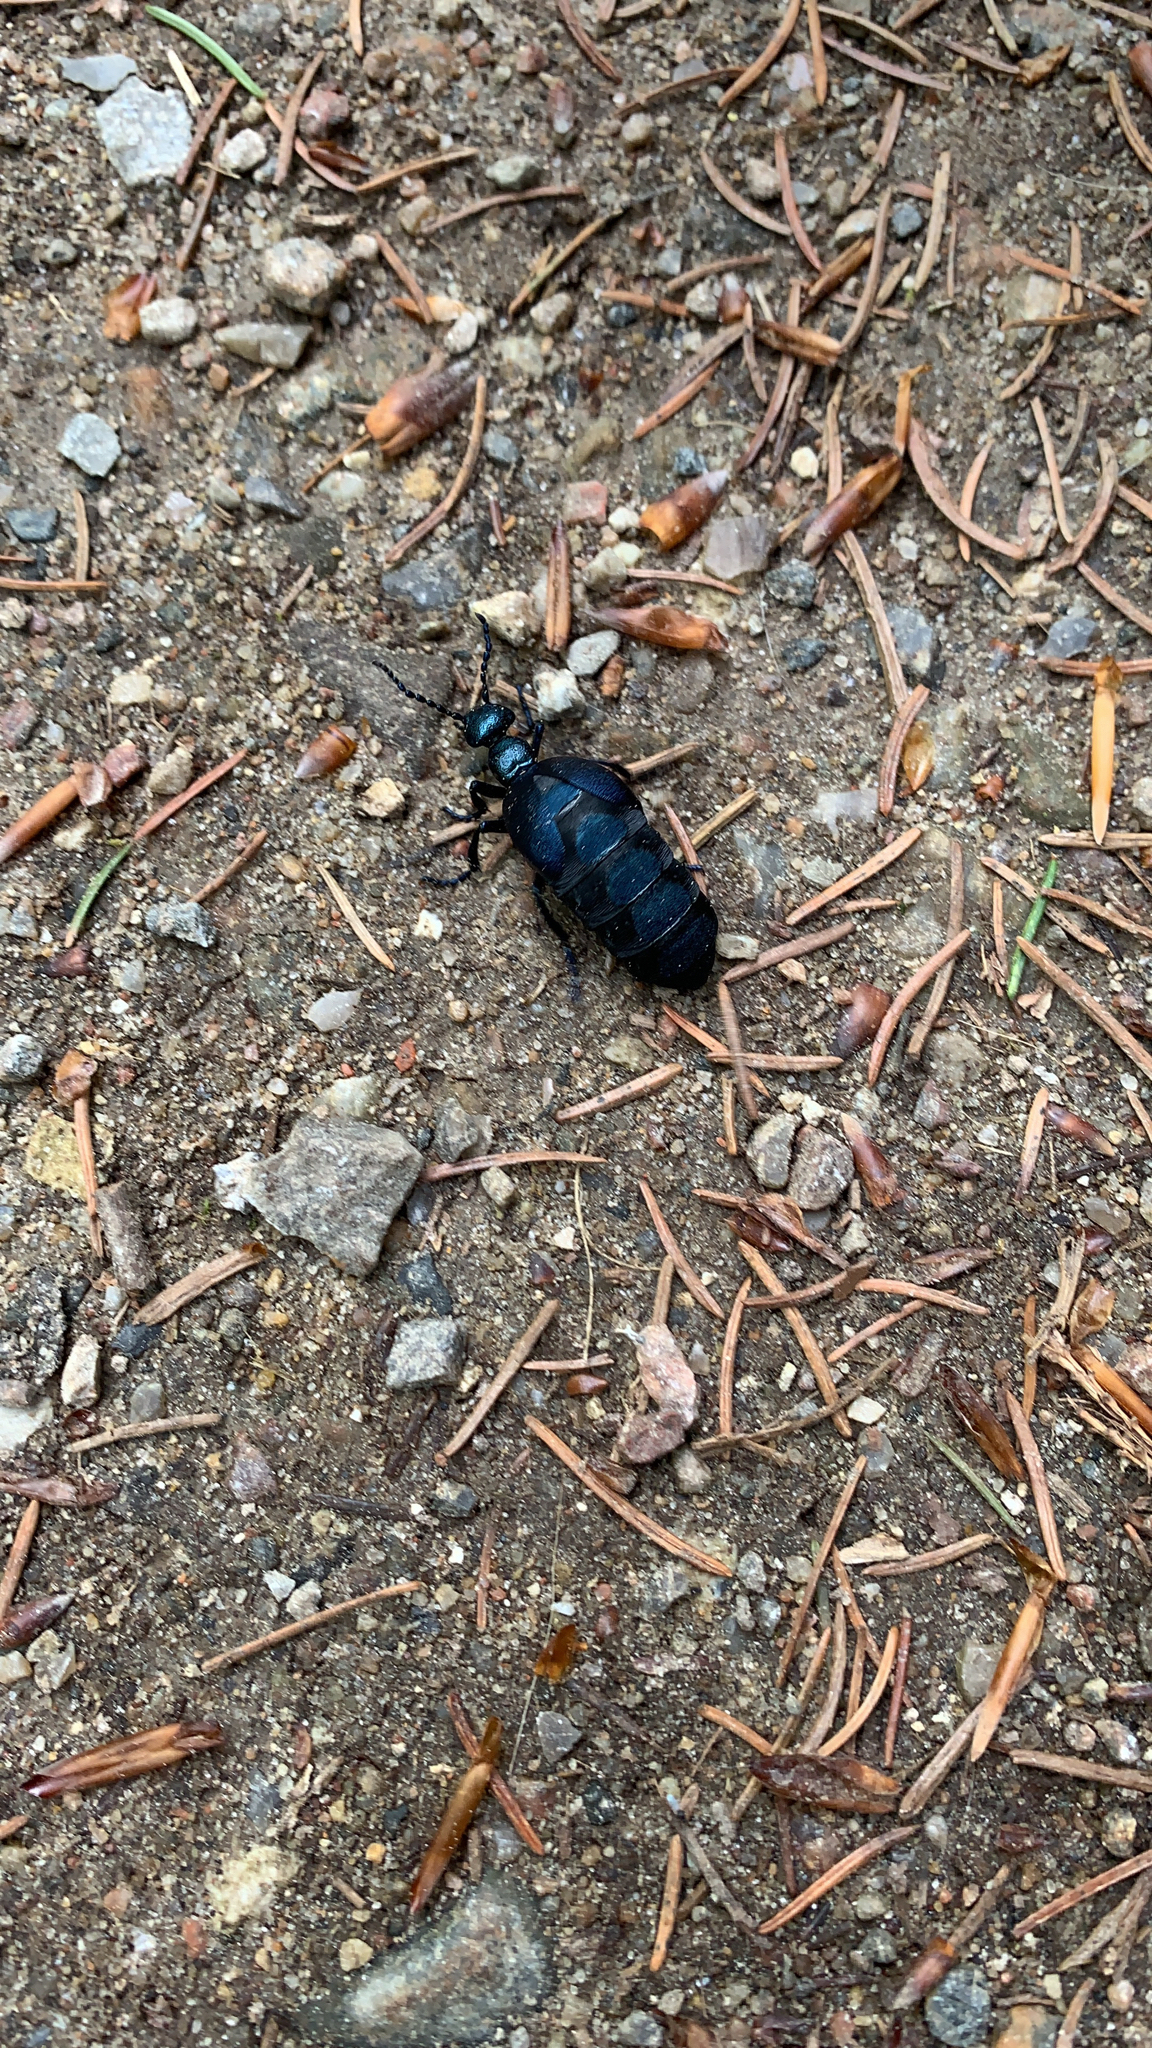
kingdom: Animalia
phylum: Arthropoda
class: Insecta
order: Coleoptera
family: Meloidae
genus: Meloe
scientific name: Meloe violaceus
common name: Violet oil-beetle
